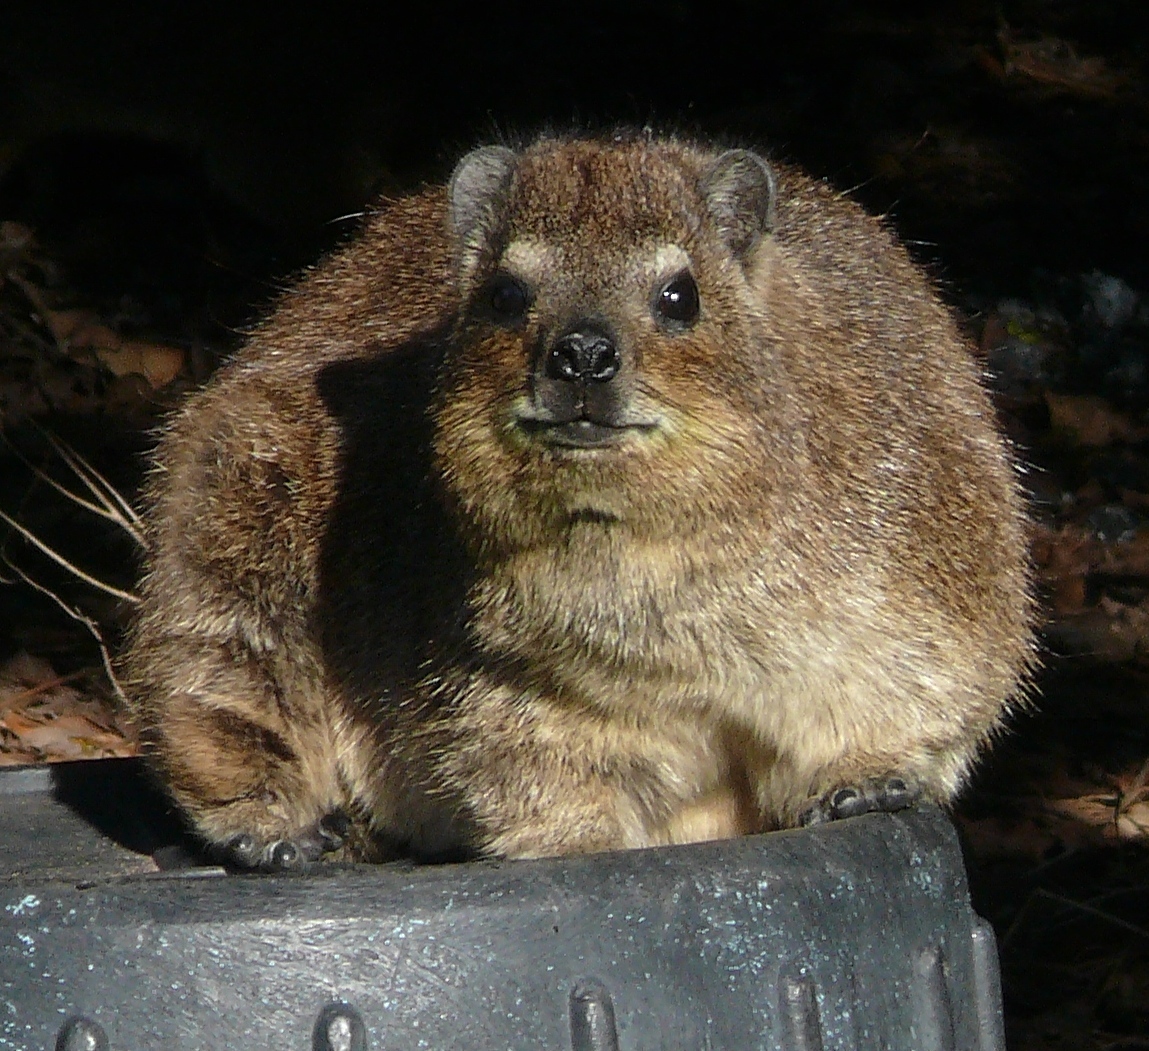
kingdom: Animalia
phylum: Chordata
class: Mammalia
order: Hyracoidea
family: Procaviidae
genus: Procavia
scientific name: Procavia capensis
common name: Rock hyrax
